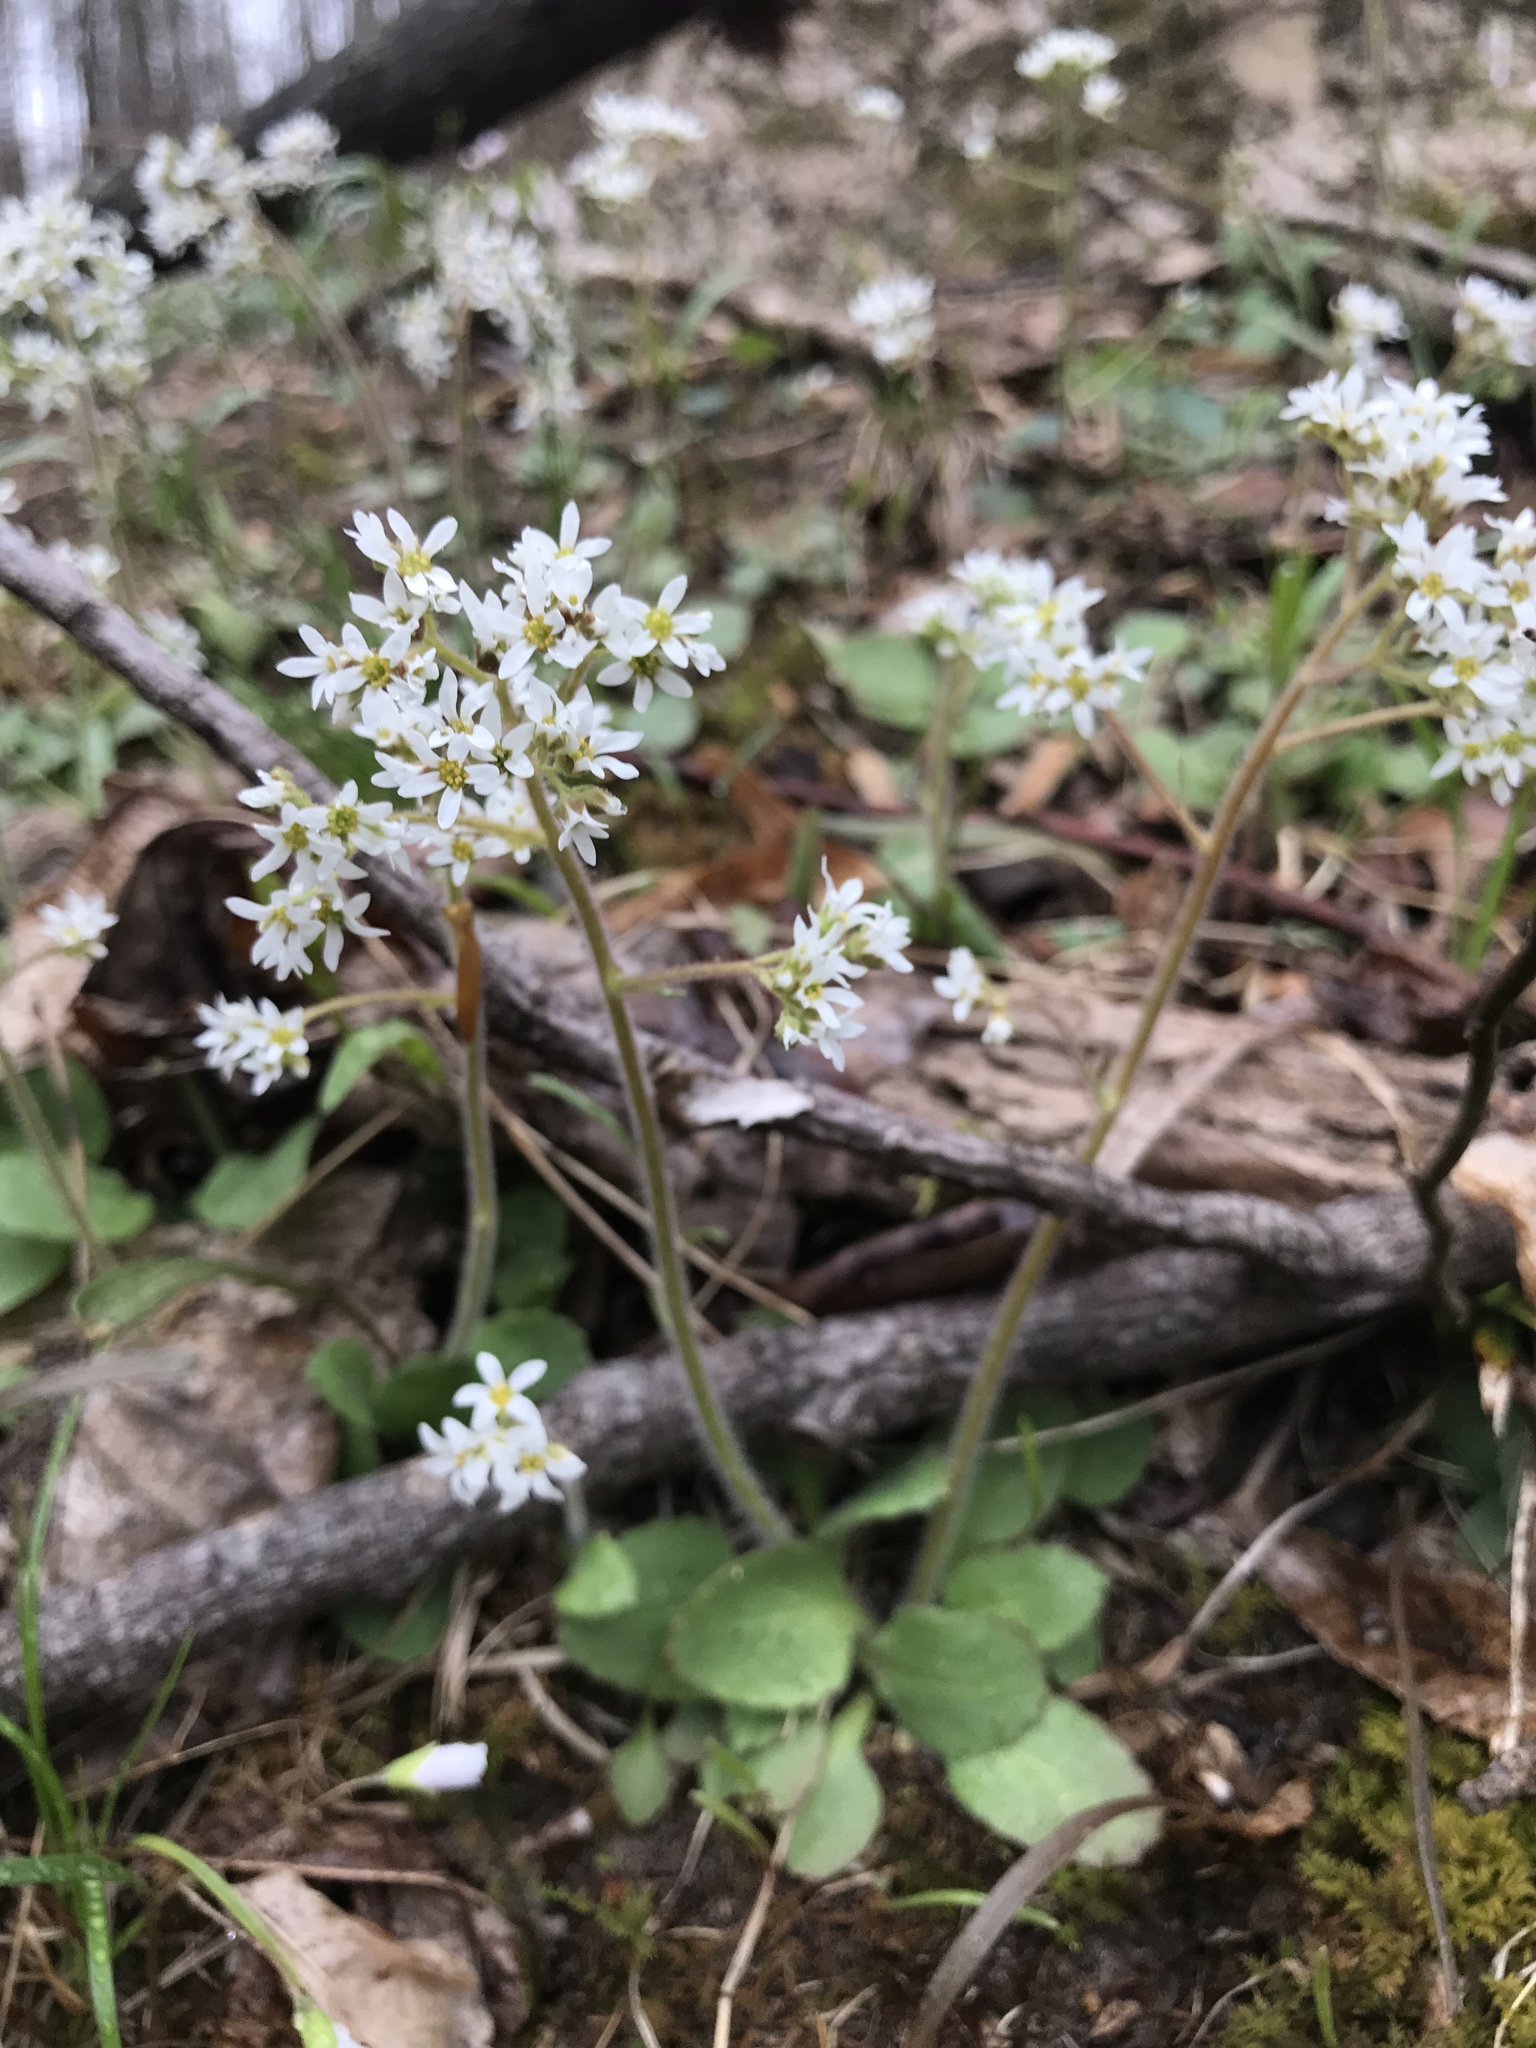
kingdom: Plantae
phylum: Tracheophyta
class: Magnoliopsida
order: Saxifragales
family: Saxifragaceae
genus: Micranthes
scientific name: Micranthes virginiensis
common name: Early saxifrage
